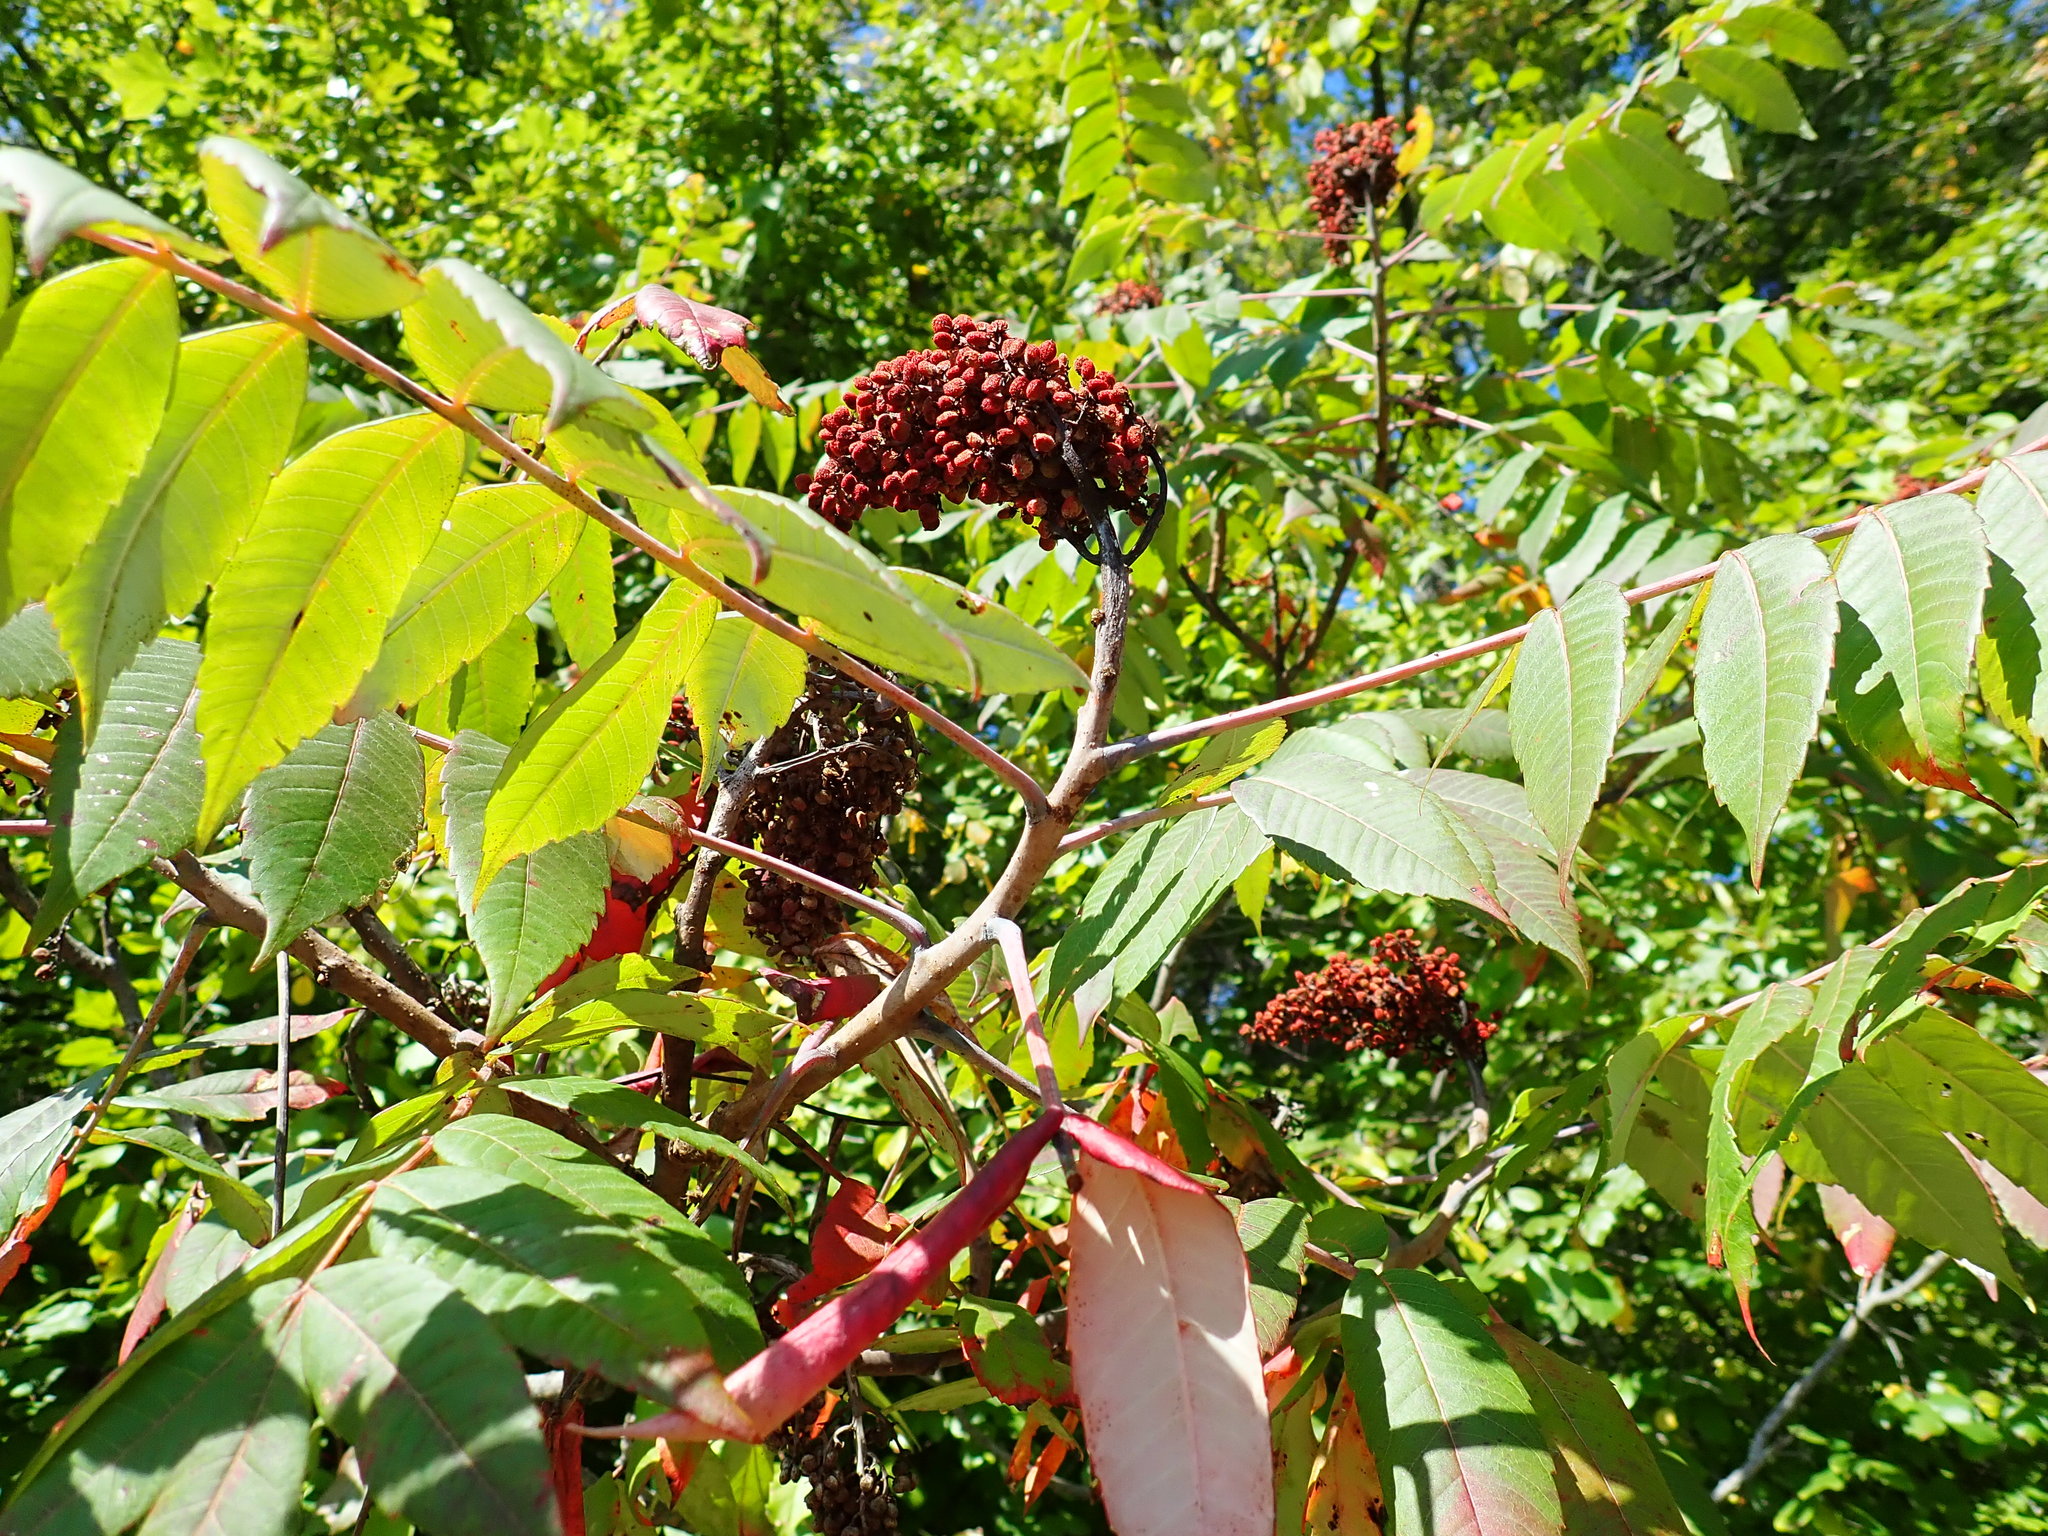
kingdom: Plantae
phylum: Tracheophyta
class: Magnoliopsida
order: Sapindales
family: Anacardiaceae
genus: Rhus
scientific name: Rhus glabra
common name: Scarlet sumac
